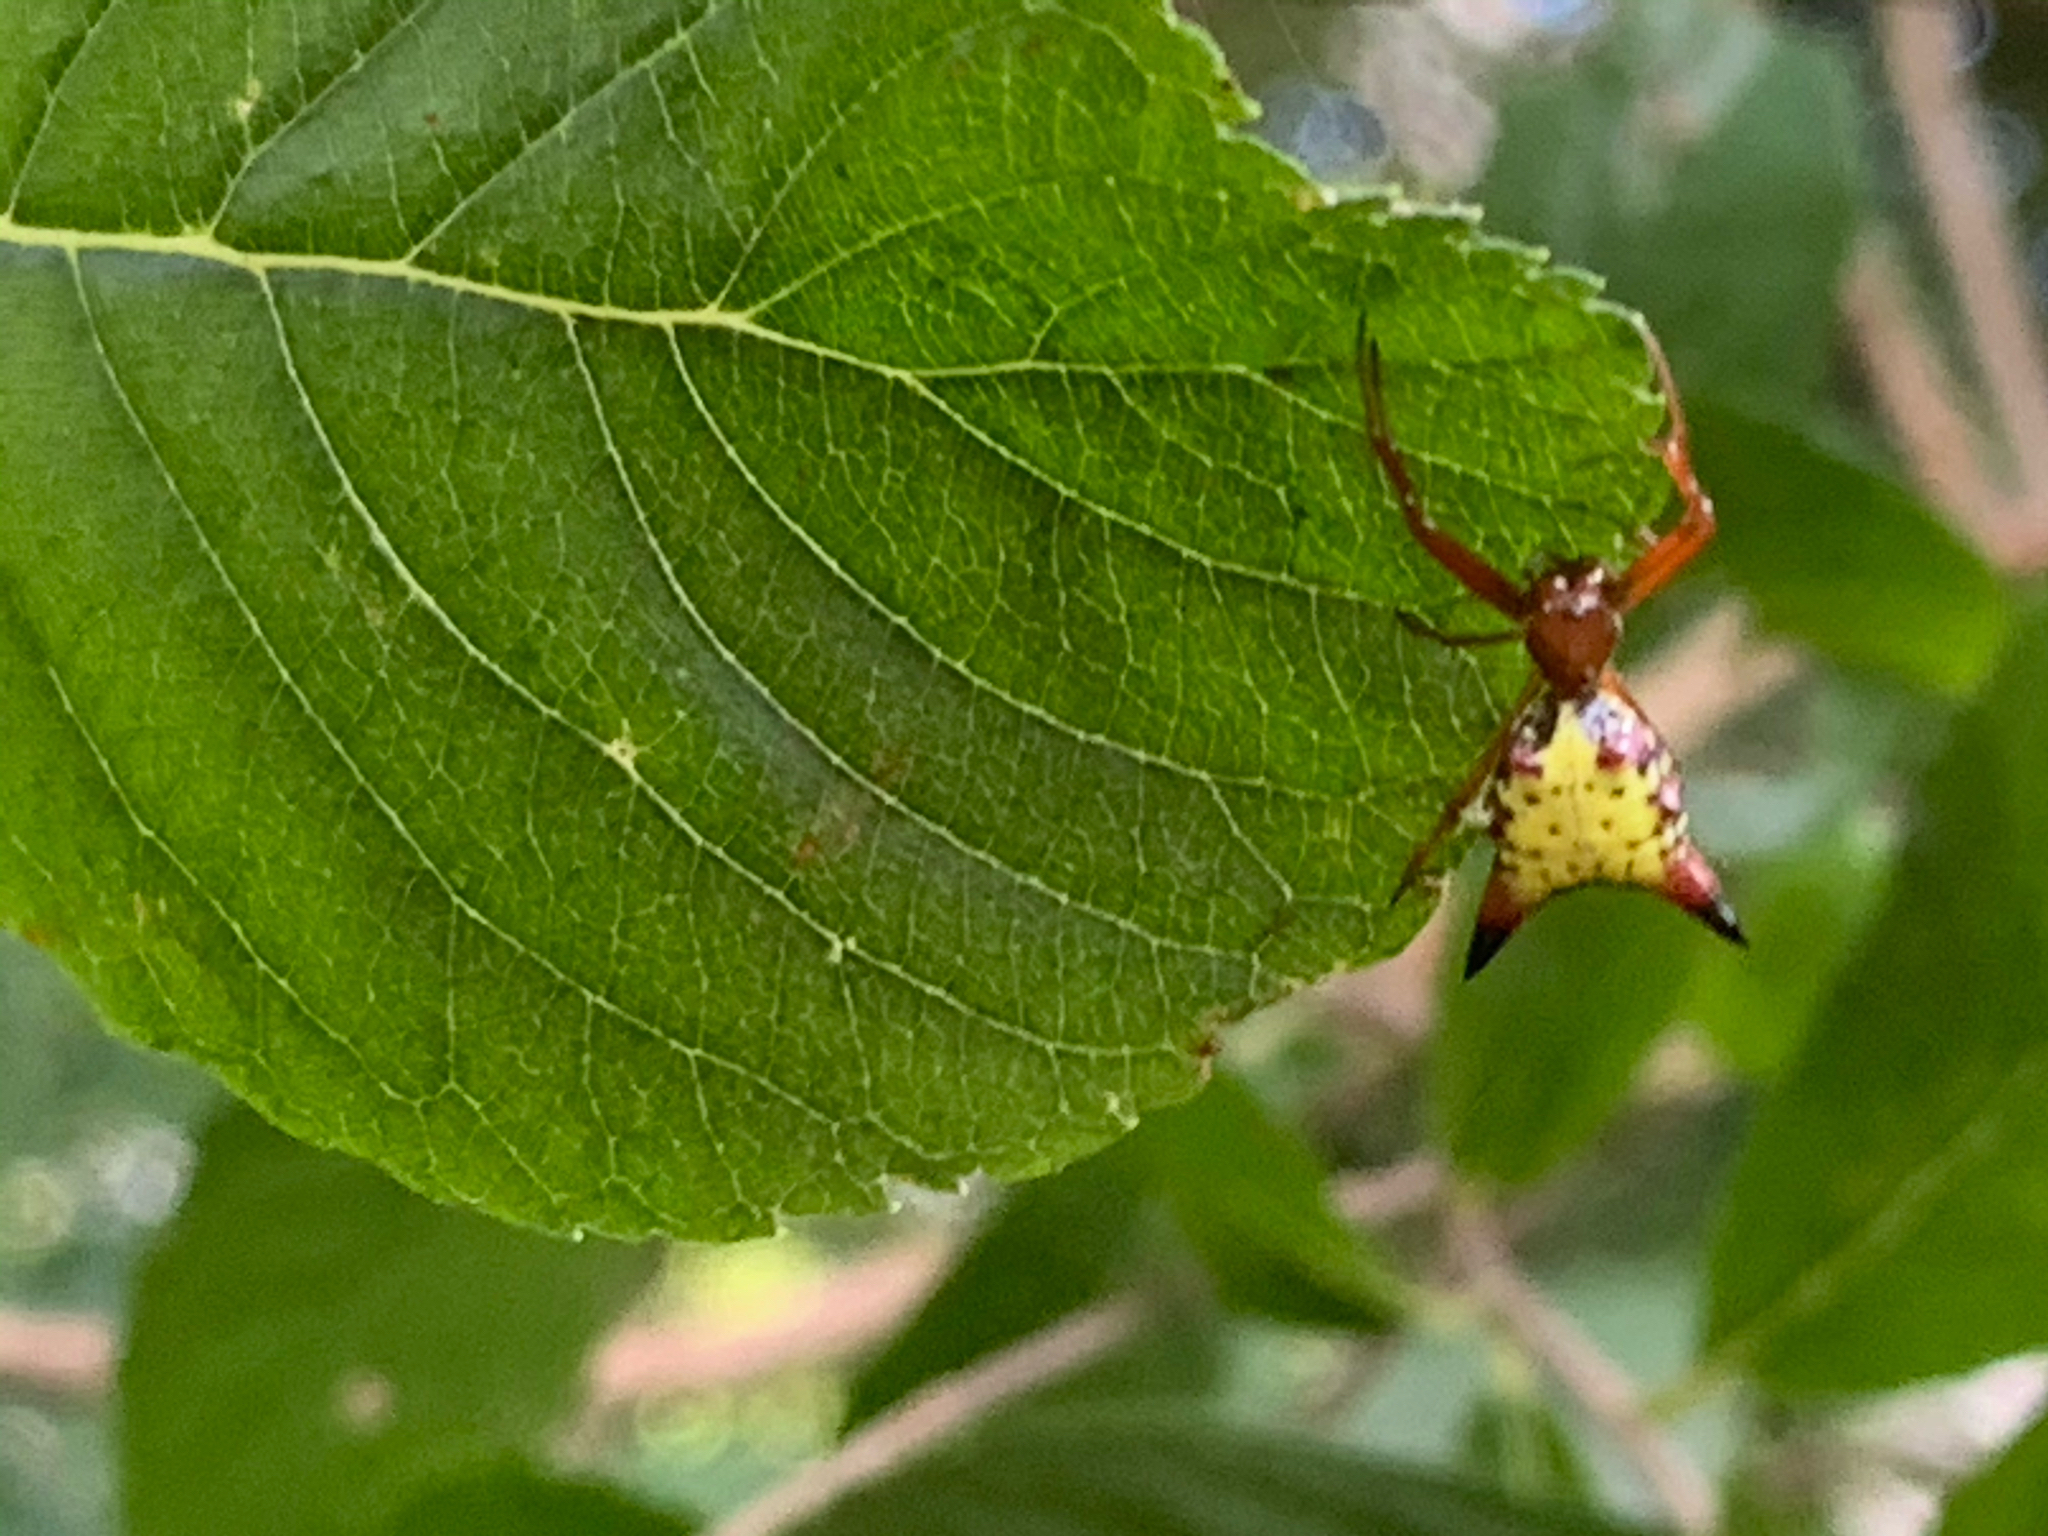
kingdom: Animalia
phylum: Arthropoda
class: Arachnida
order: Araneae
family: Araneidae
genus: Micrathena
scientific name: Micrathena sagittata
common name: Orb weavers
